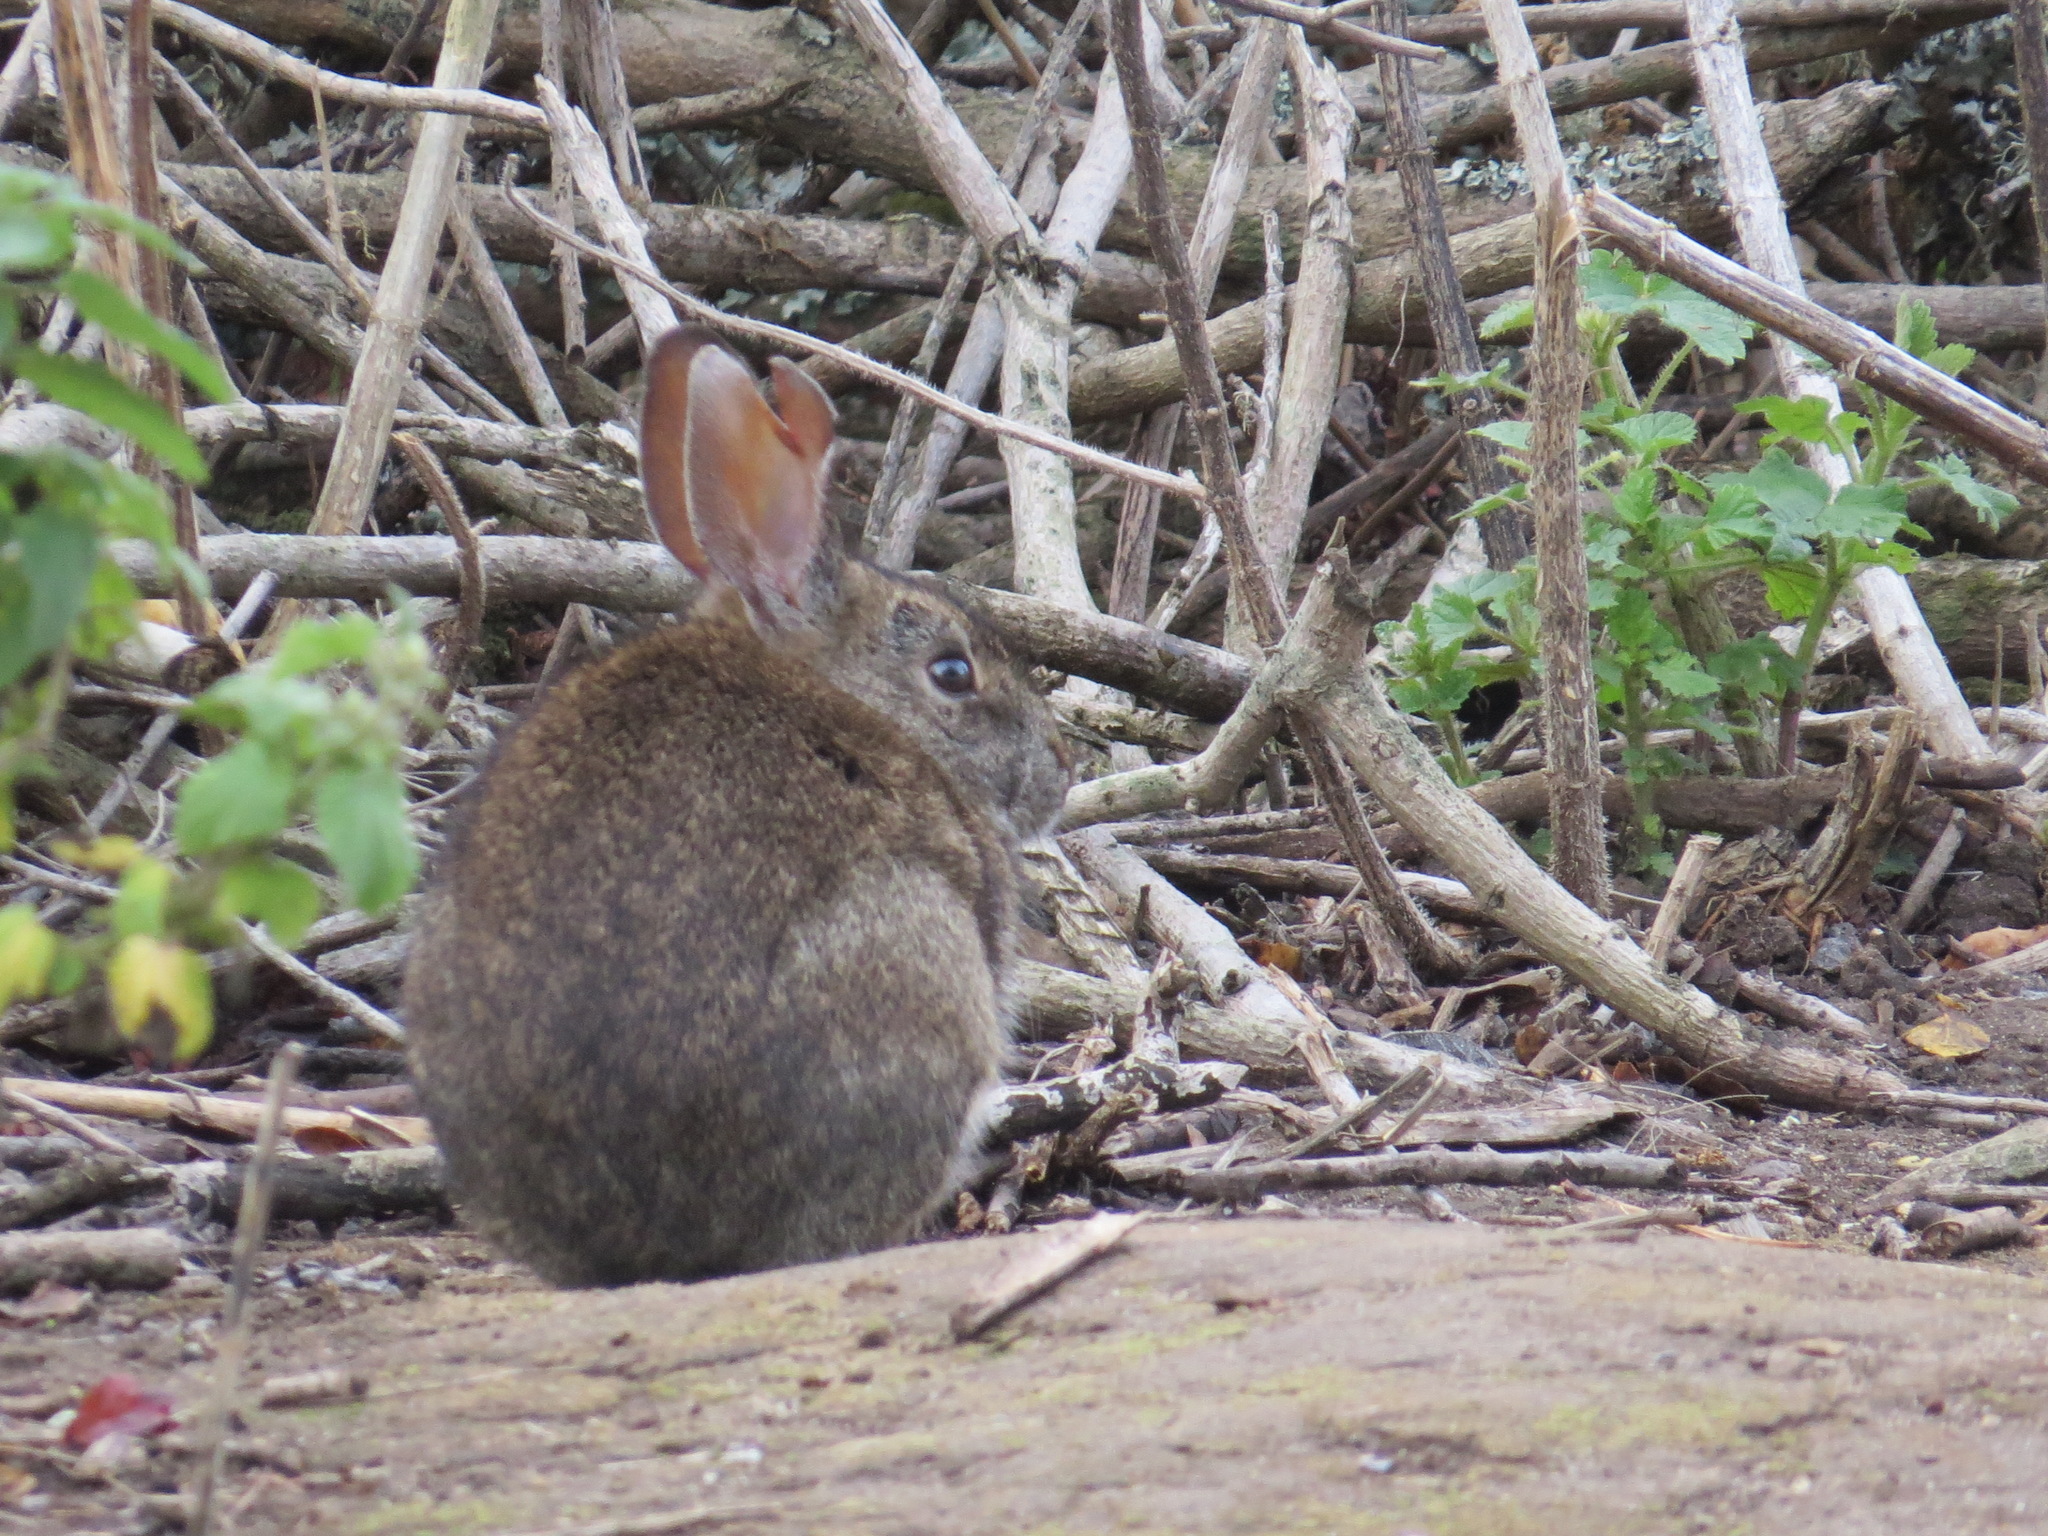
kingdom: Animalia
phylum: Chordata
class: Mammalia
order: Lagomorpha
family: Leporidae
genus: Sylvilagus
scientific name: Sylvilagus bachmani
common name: Brush rabbit
